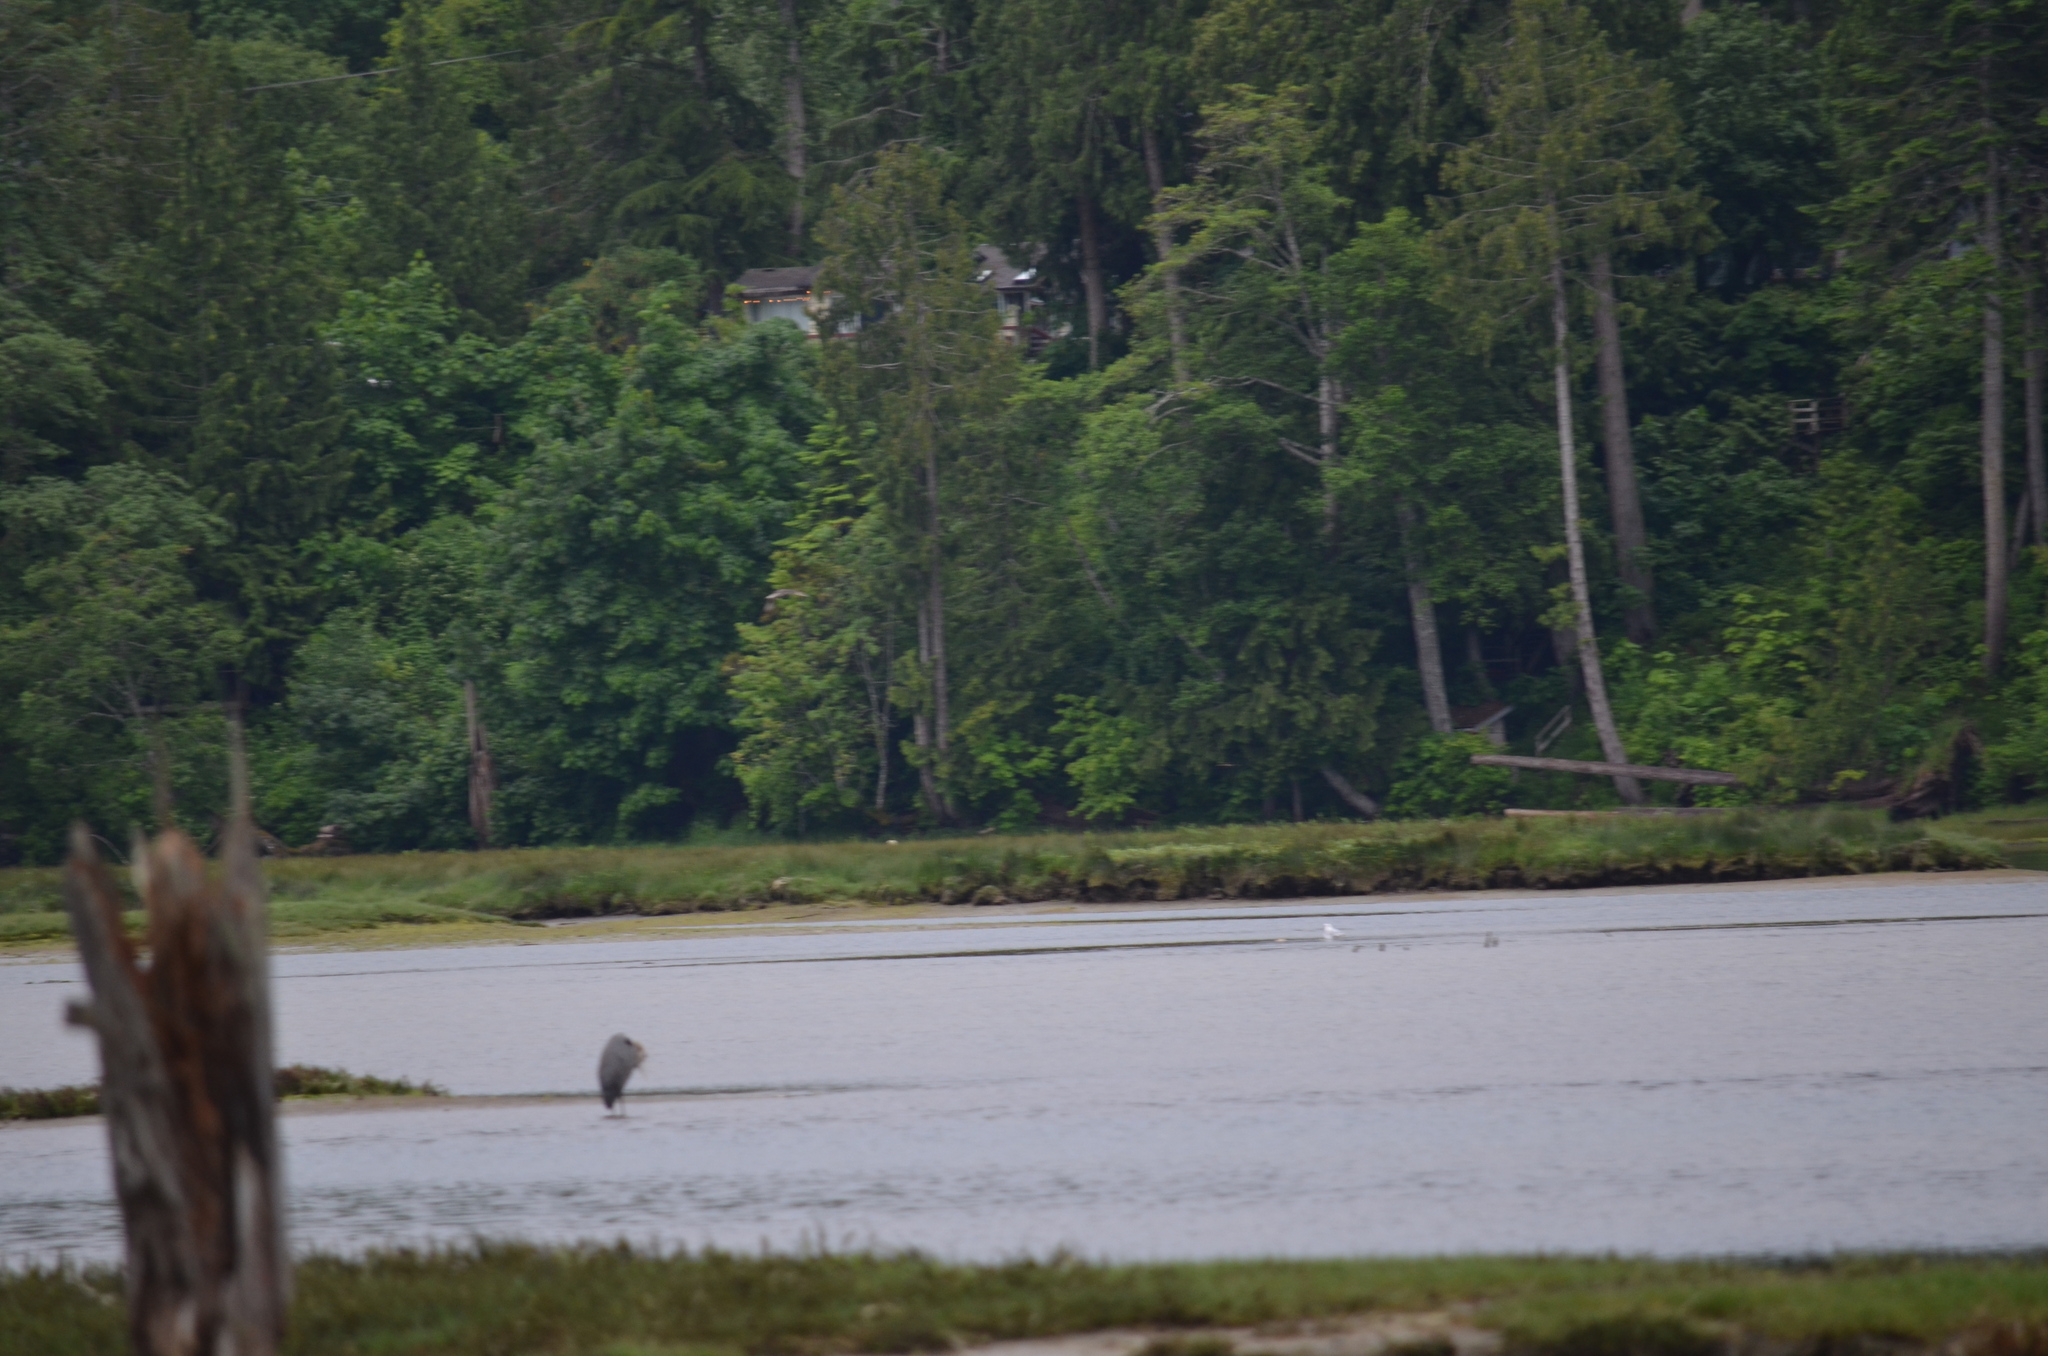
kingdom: Animalia
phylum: Chordata
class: Aves
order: Pelecaniformes
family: Ardeidae
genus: Ardea
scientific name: Ardea herodias
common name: Great blue heron
